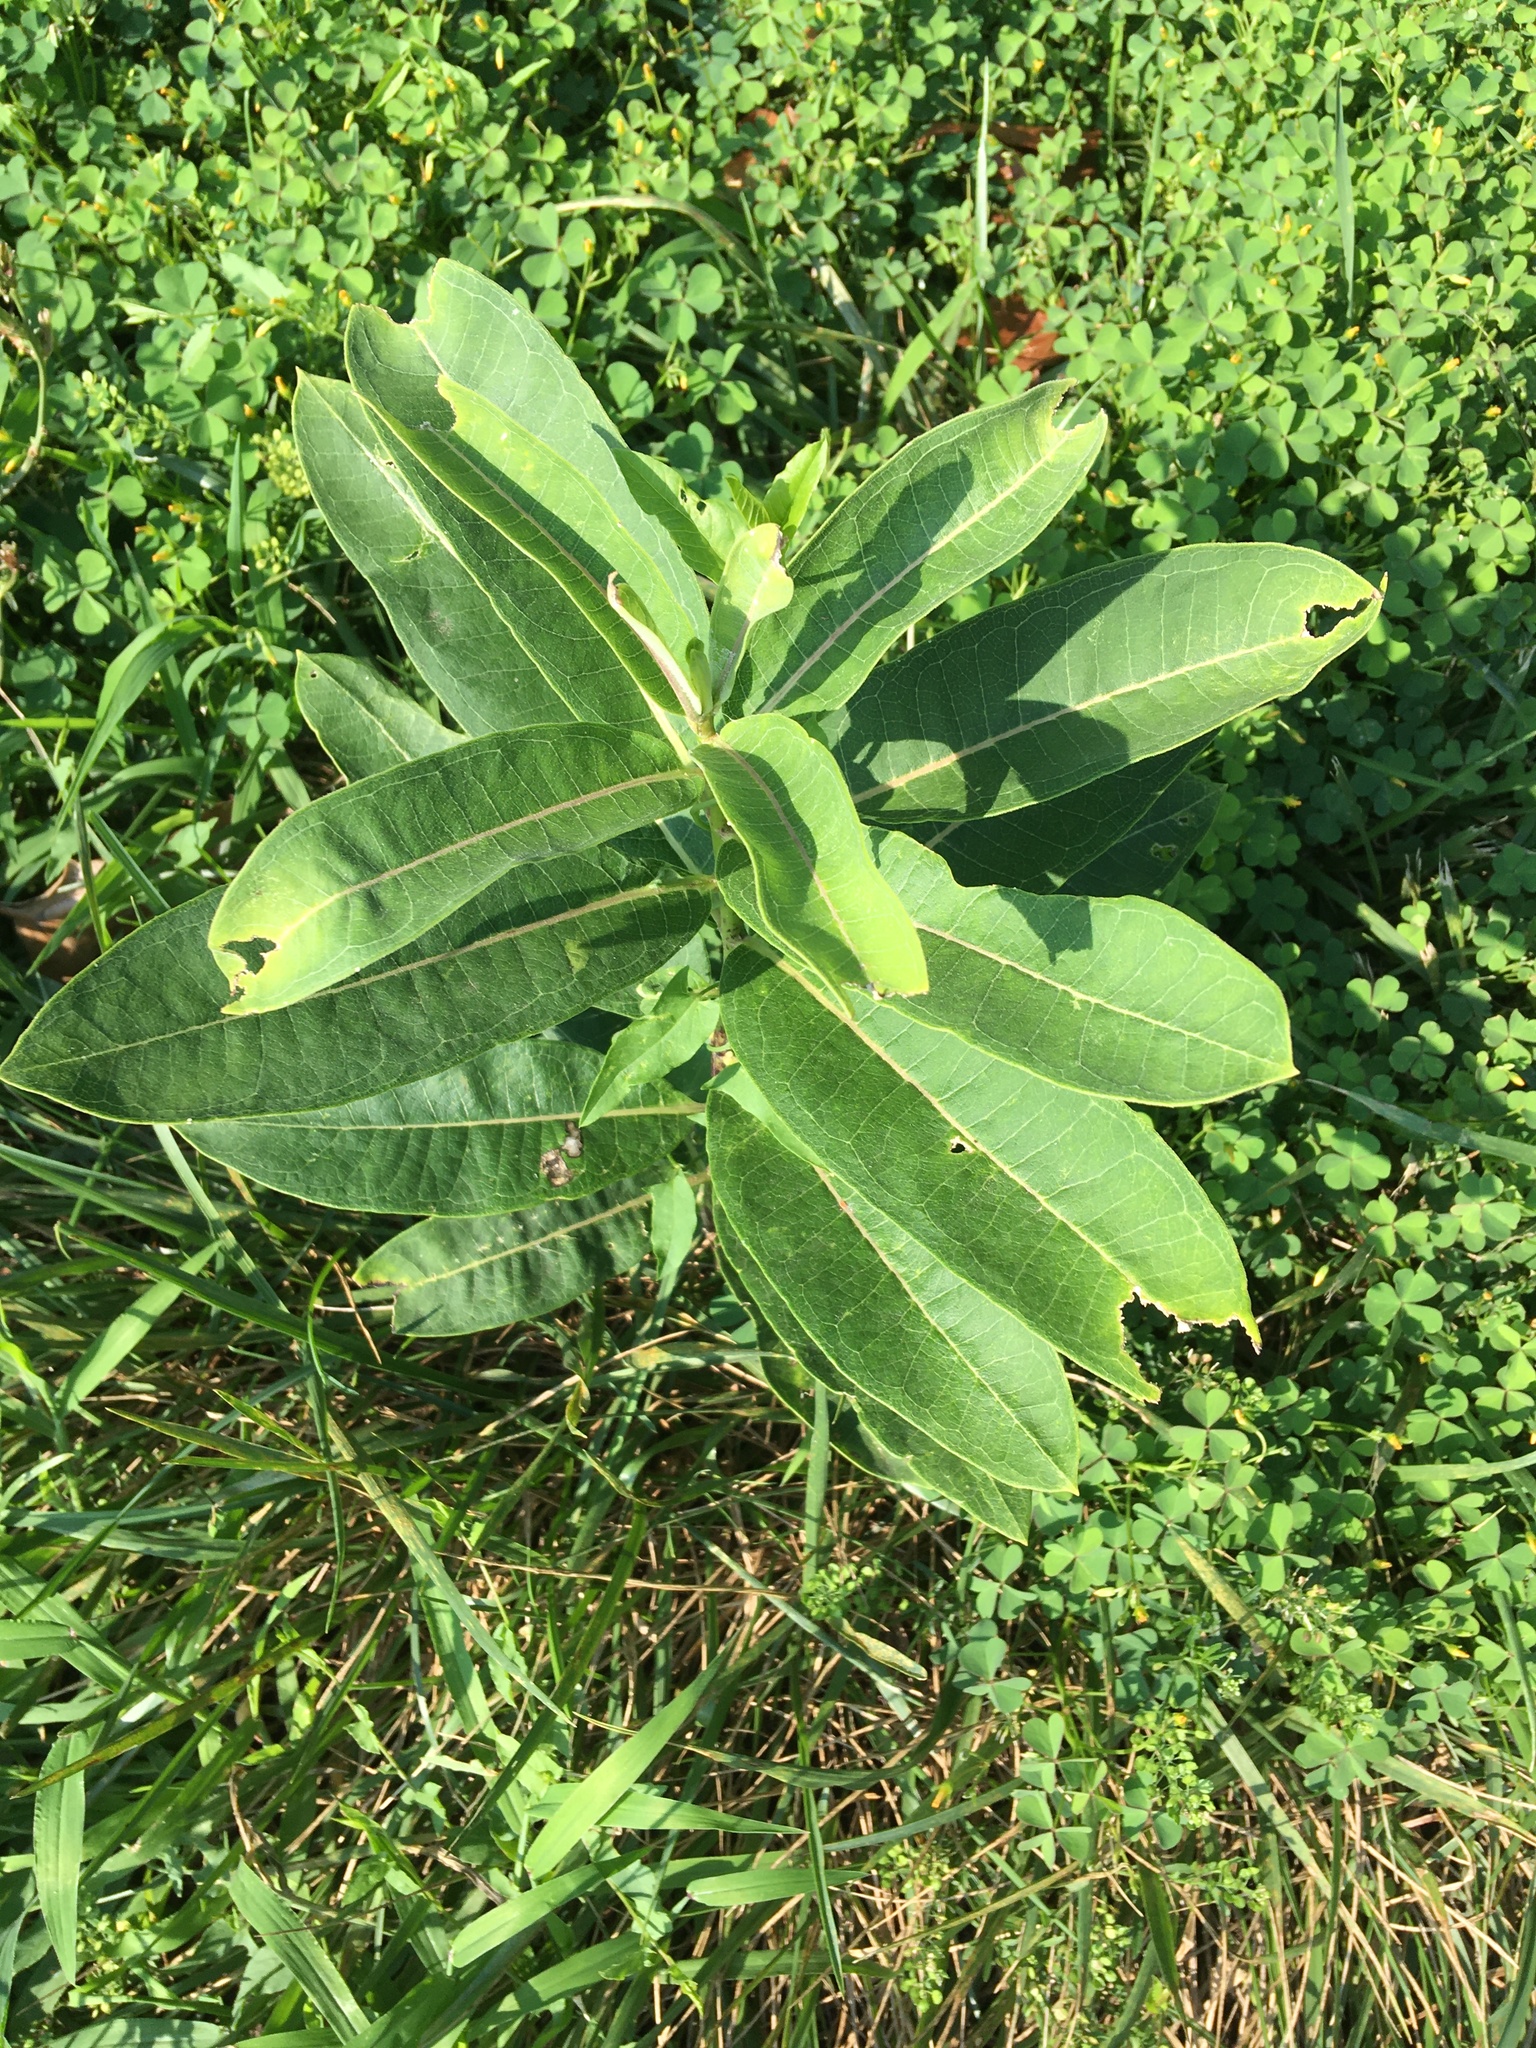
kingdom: Plantae
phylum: Tracheophyta
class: Magnoliopsida
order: Gentianales
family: Apocynaceae
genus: Asclepias
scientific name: Asclepias syriaca
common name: Common milkweed
